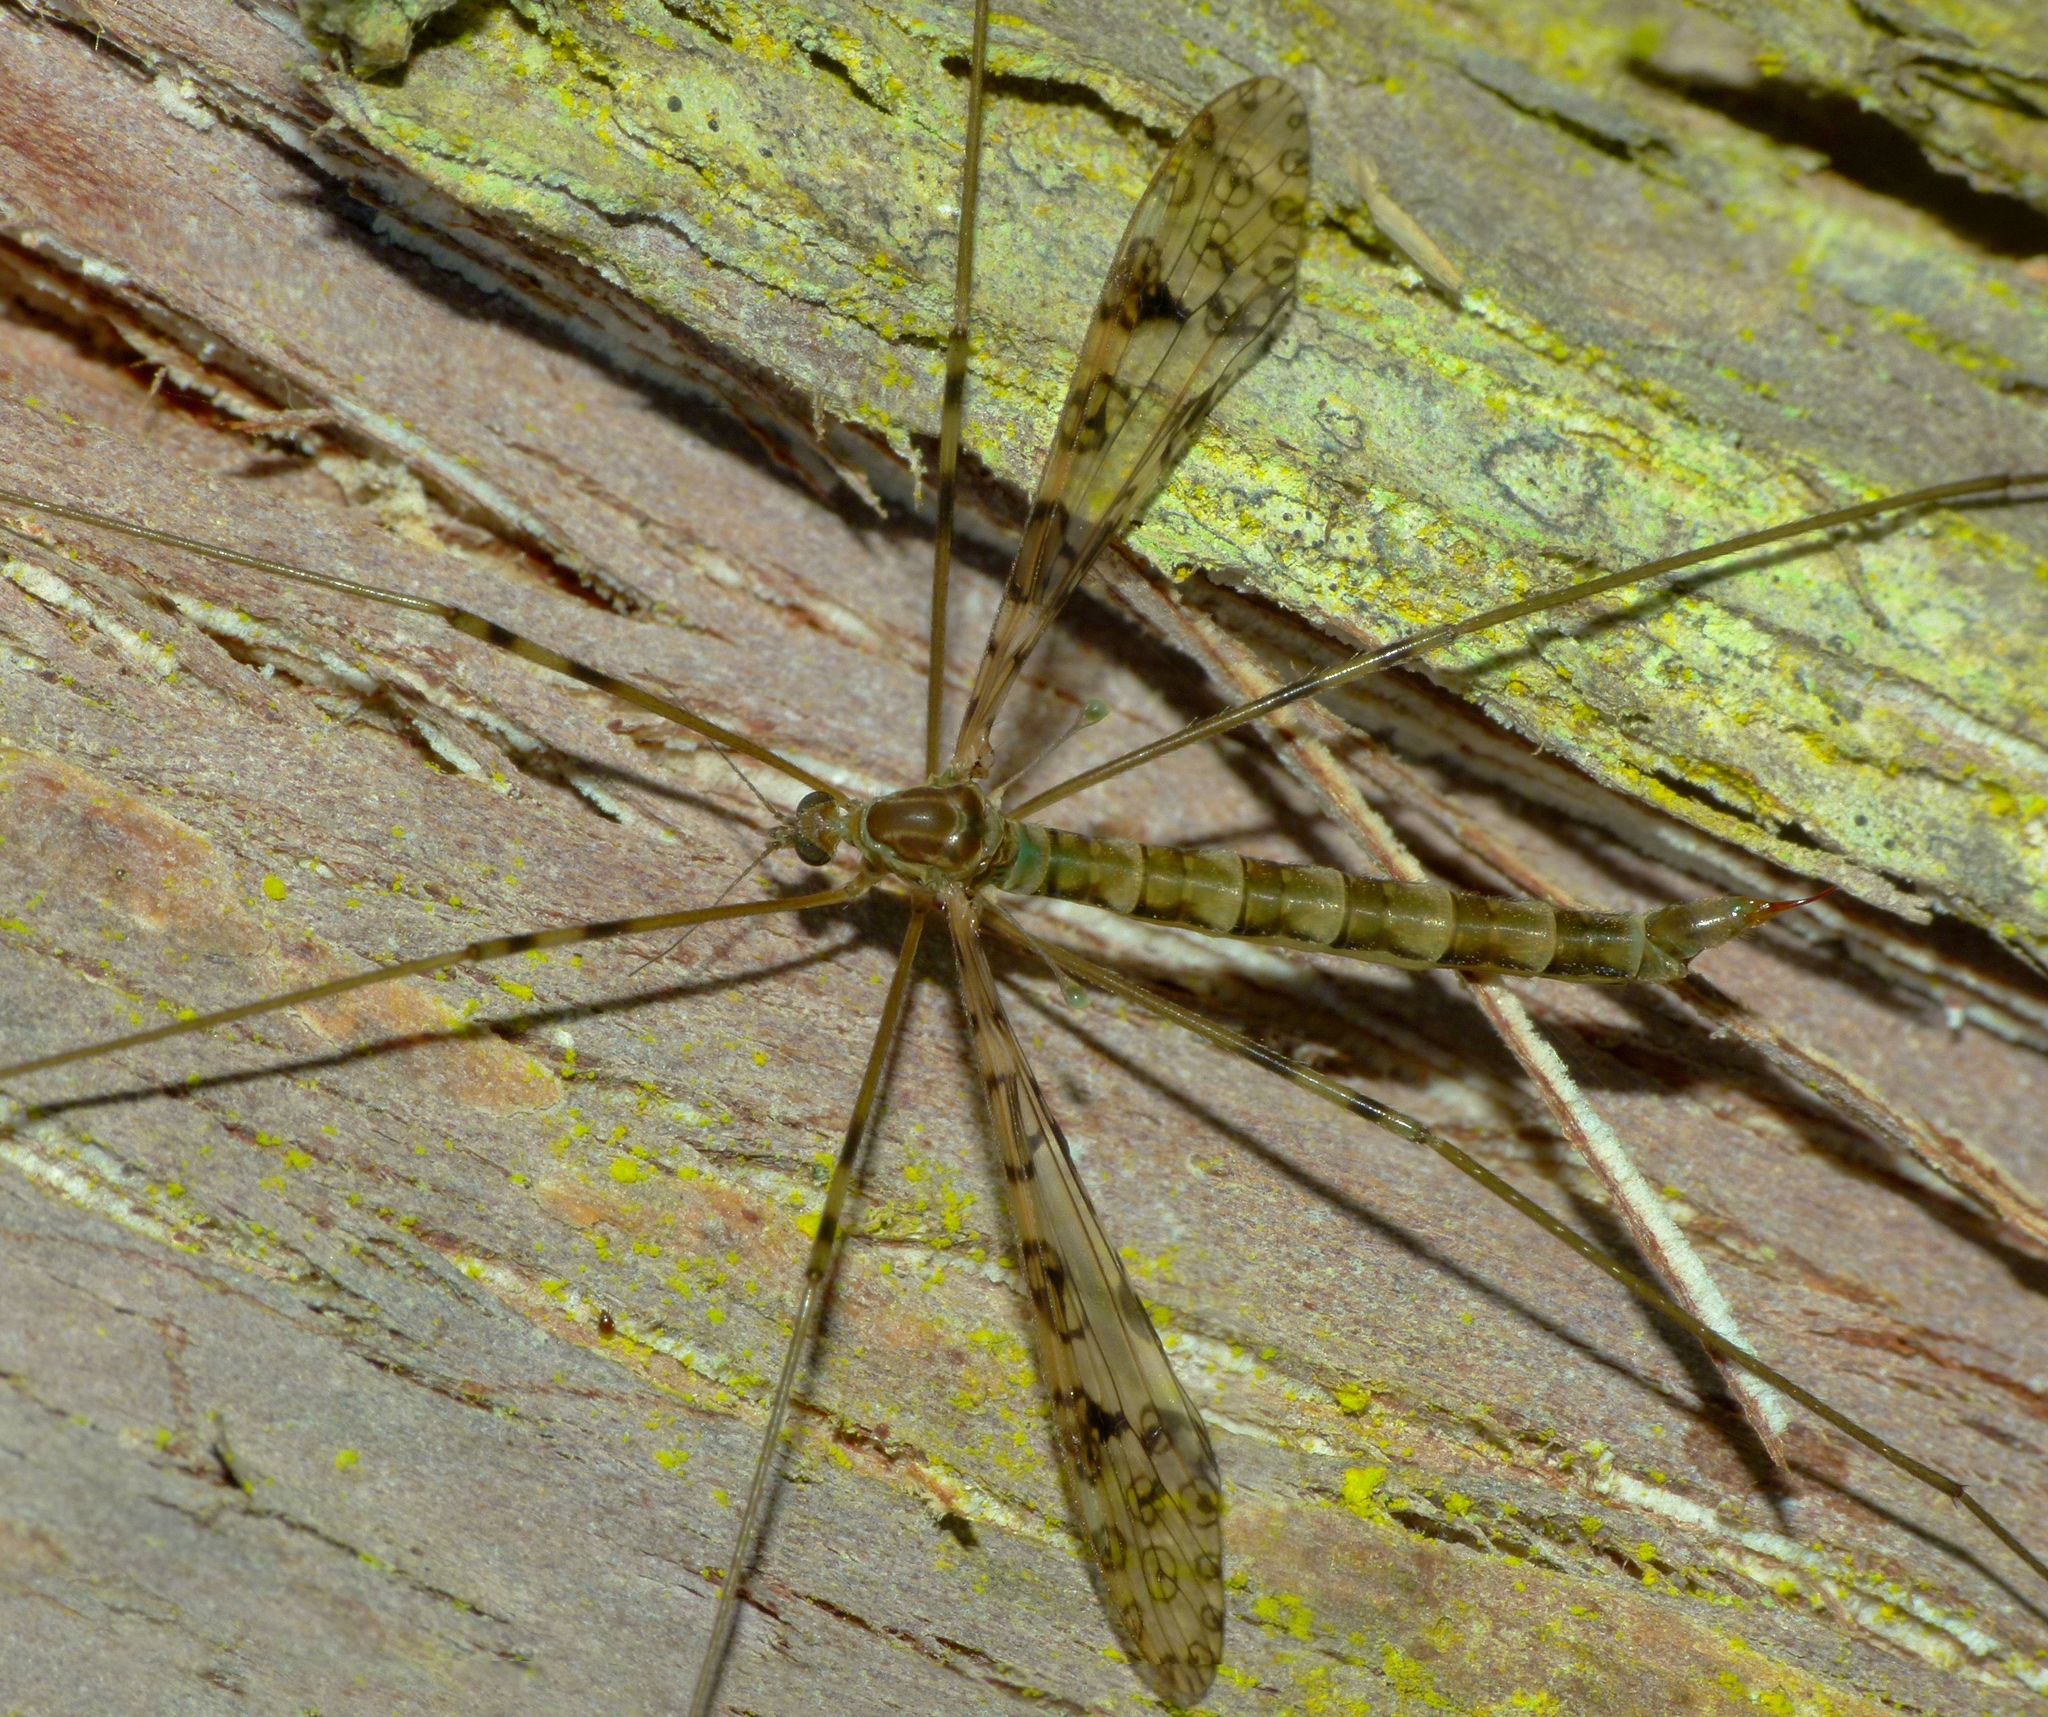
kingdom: Animalia
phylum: Arthropoda
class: Insecta
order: Diptera
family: Limoniidae
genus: Austrolimnophila
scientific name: Austrolimnophila argus
